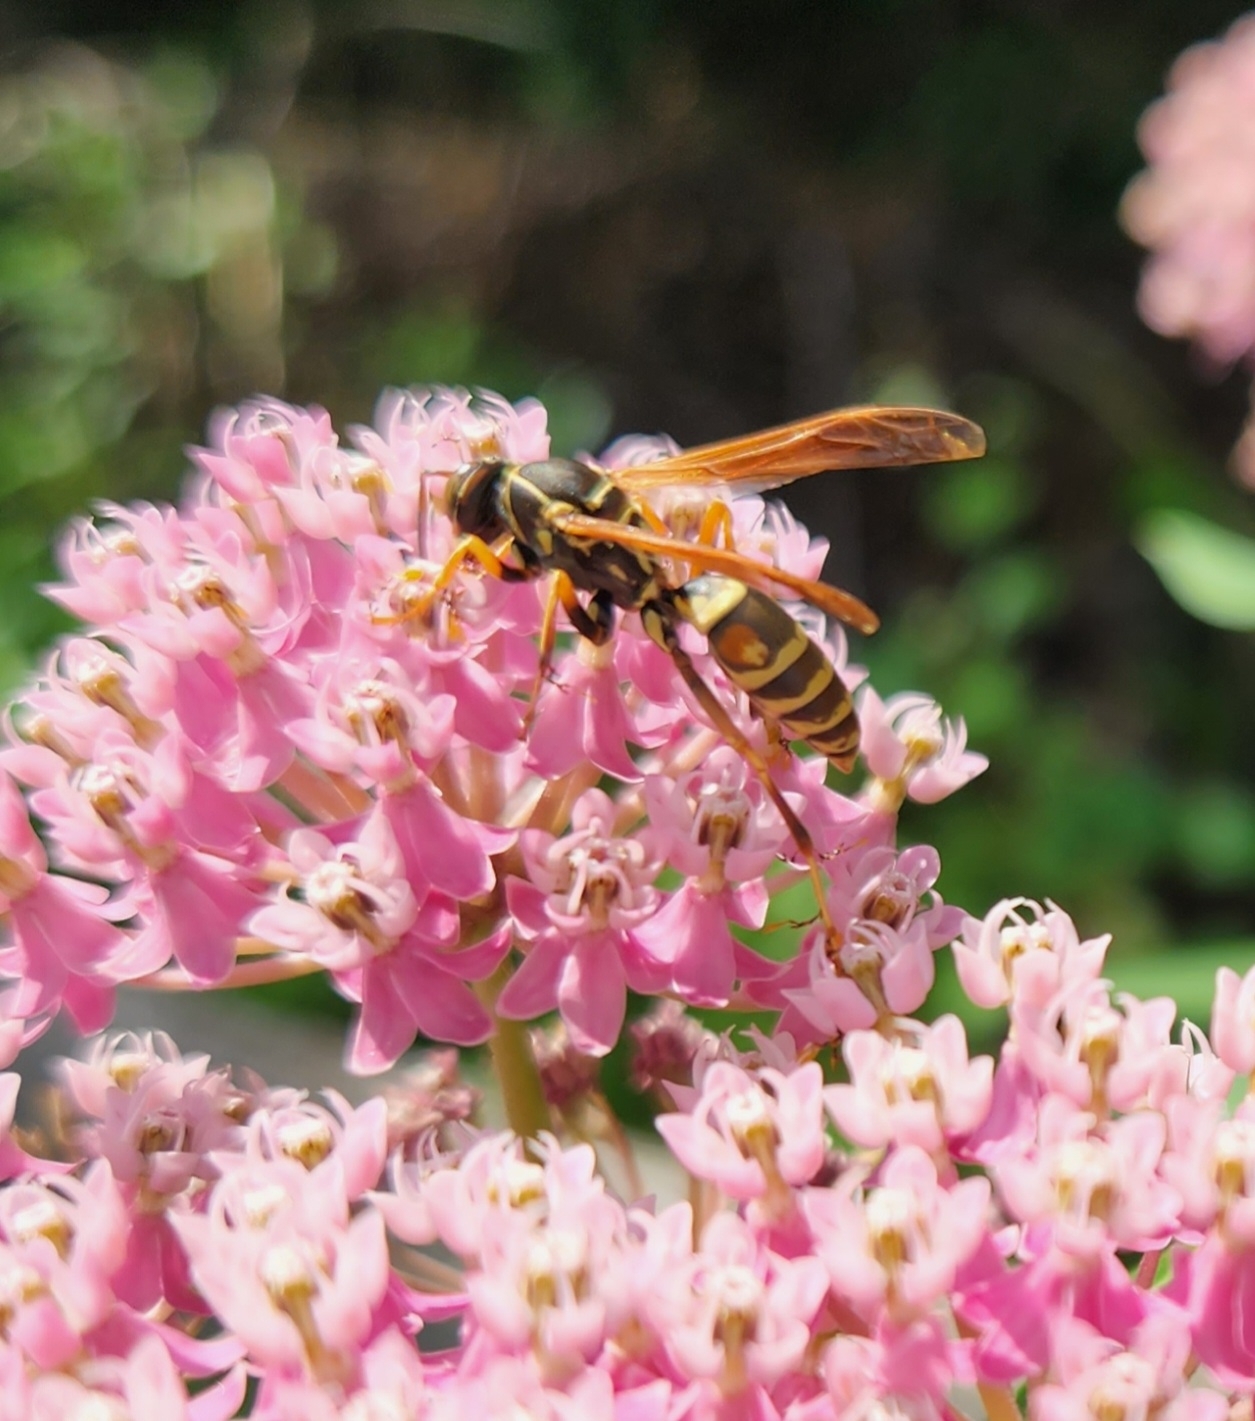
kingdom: Animalia
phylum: Arthropoda
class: Insecta
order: Hymenoptera
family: Eumenidae
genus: Polistes
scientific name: Polistes fuscatus
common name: Dark paper wasp
